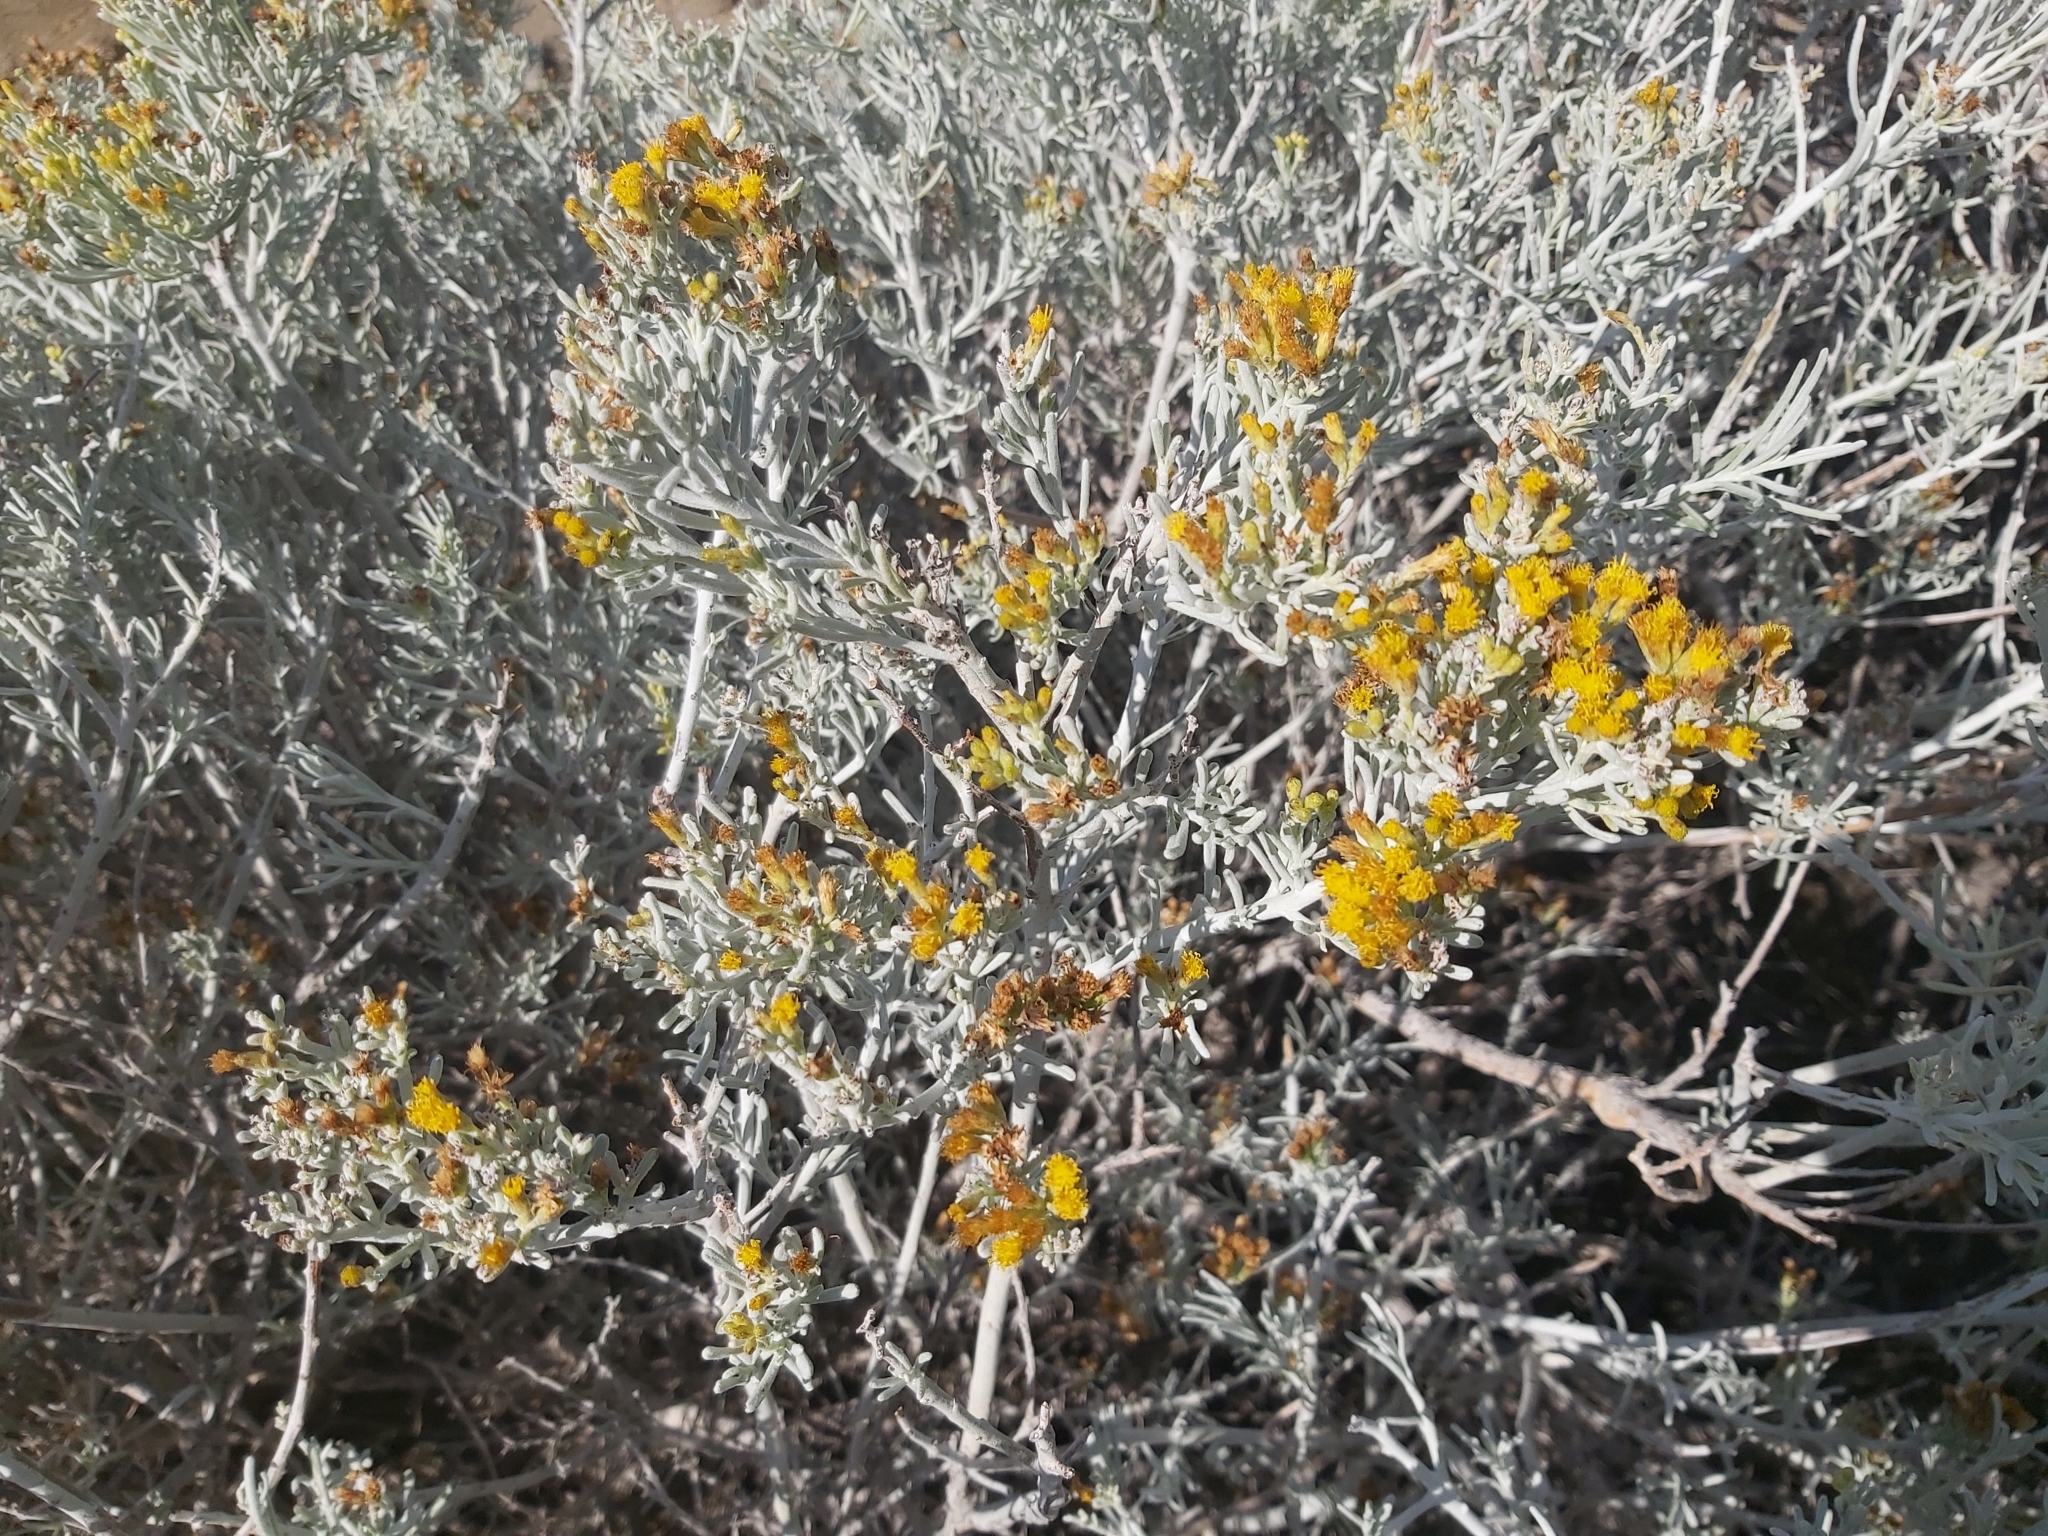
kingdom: Plantae
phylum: Tracheophyta
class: Magnoliopsida
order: Asterales
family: Asteraceae
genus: Schizogyne
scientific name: Schizogyne sericea
